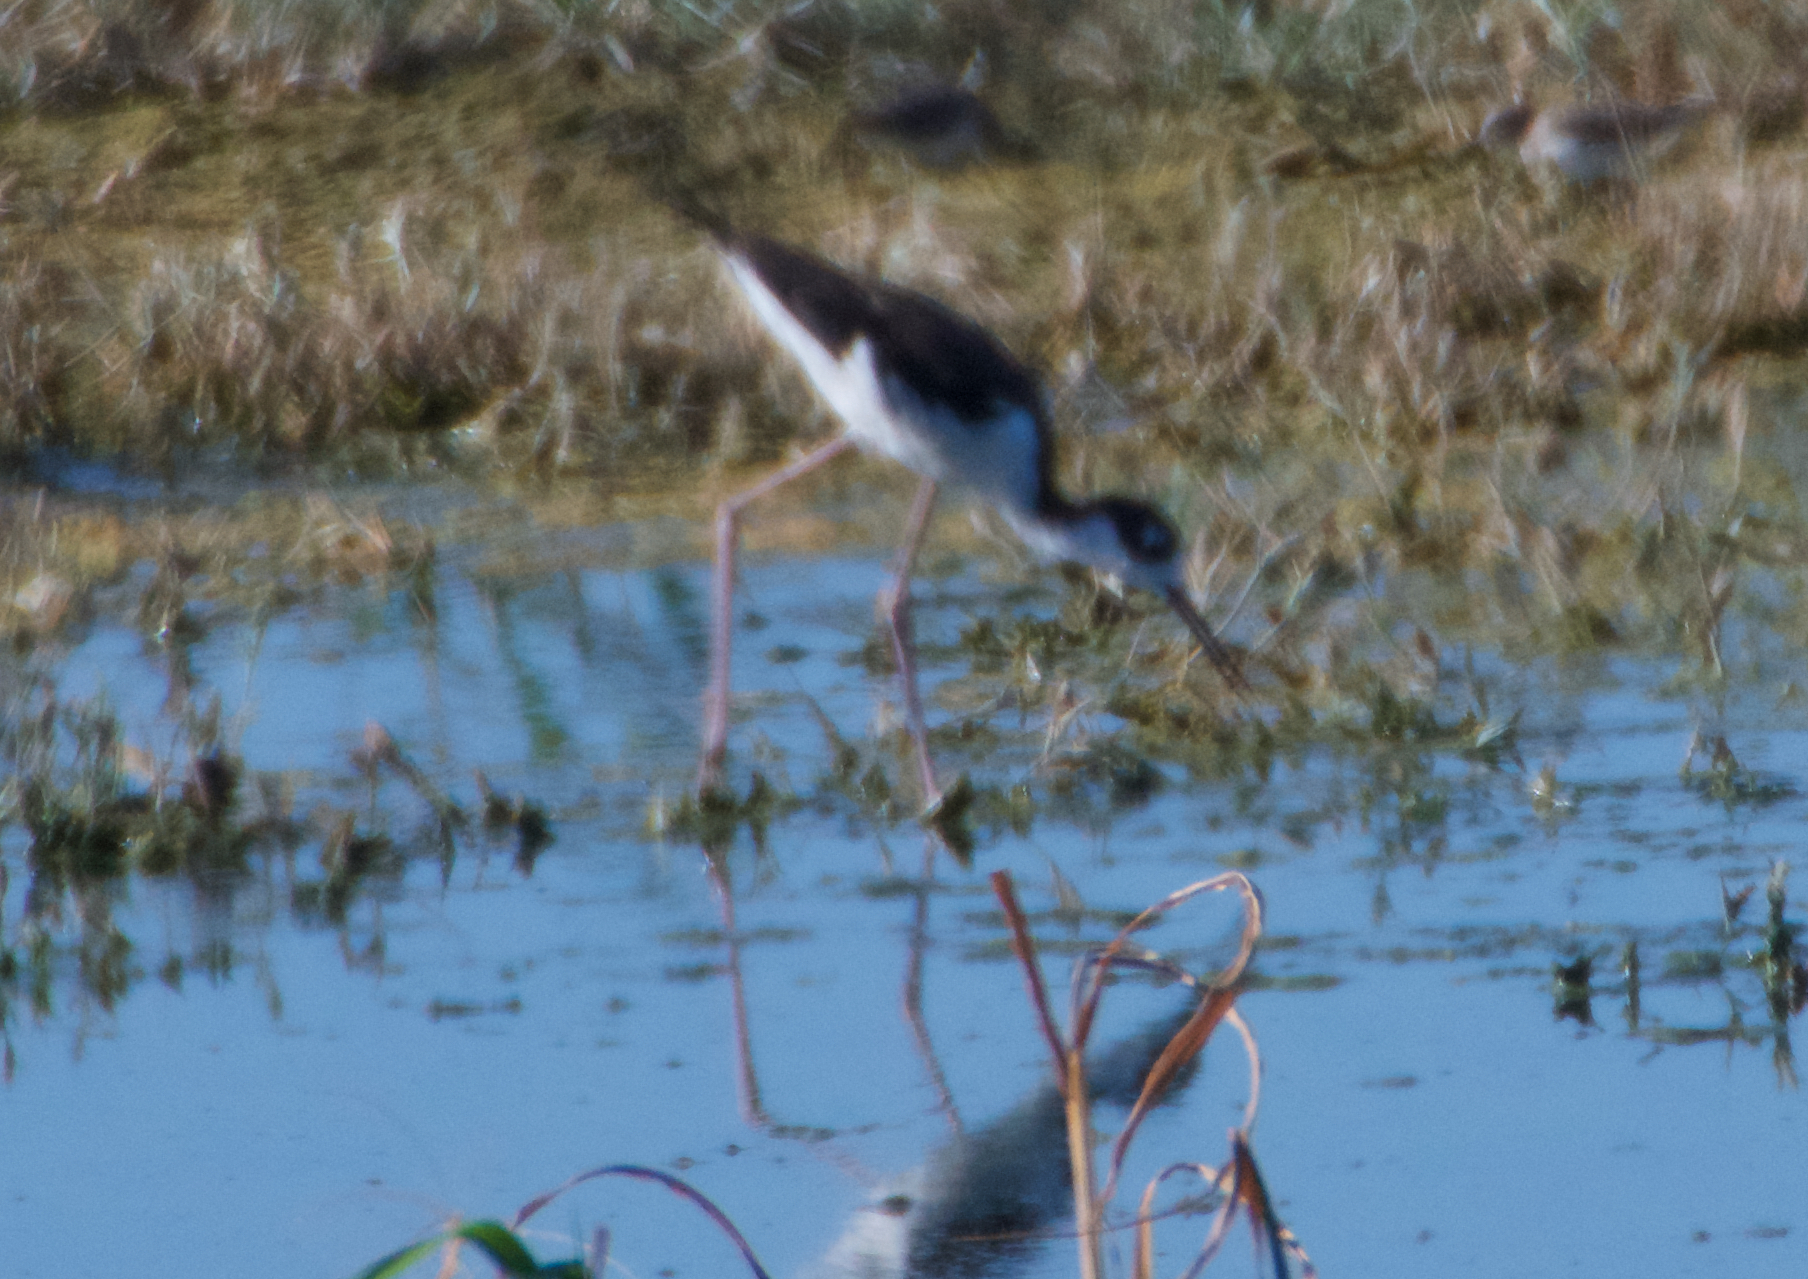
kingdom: Animalia
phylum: Chordata
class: Aves
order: Charadriiformes
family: Recurvirostridae
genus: Himantopus
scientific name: Himantopus mexicanus
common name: Black-necked stilt
